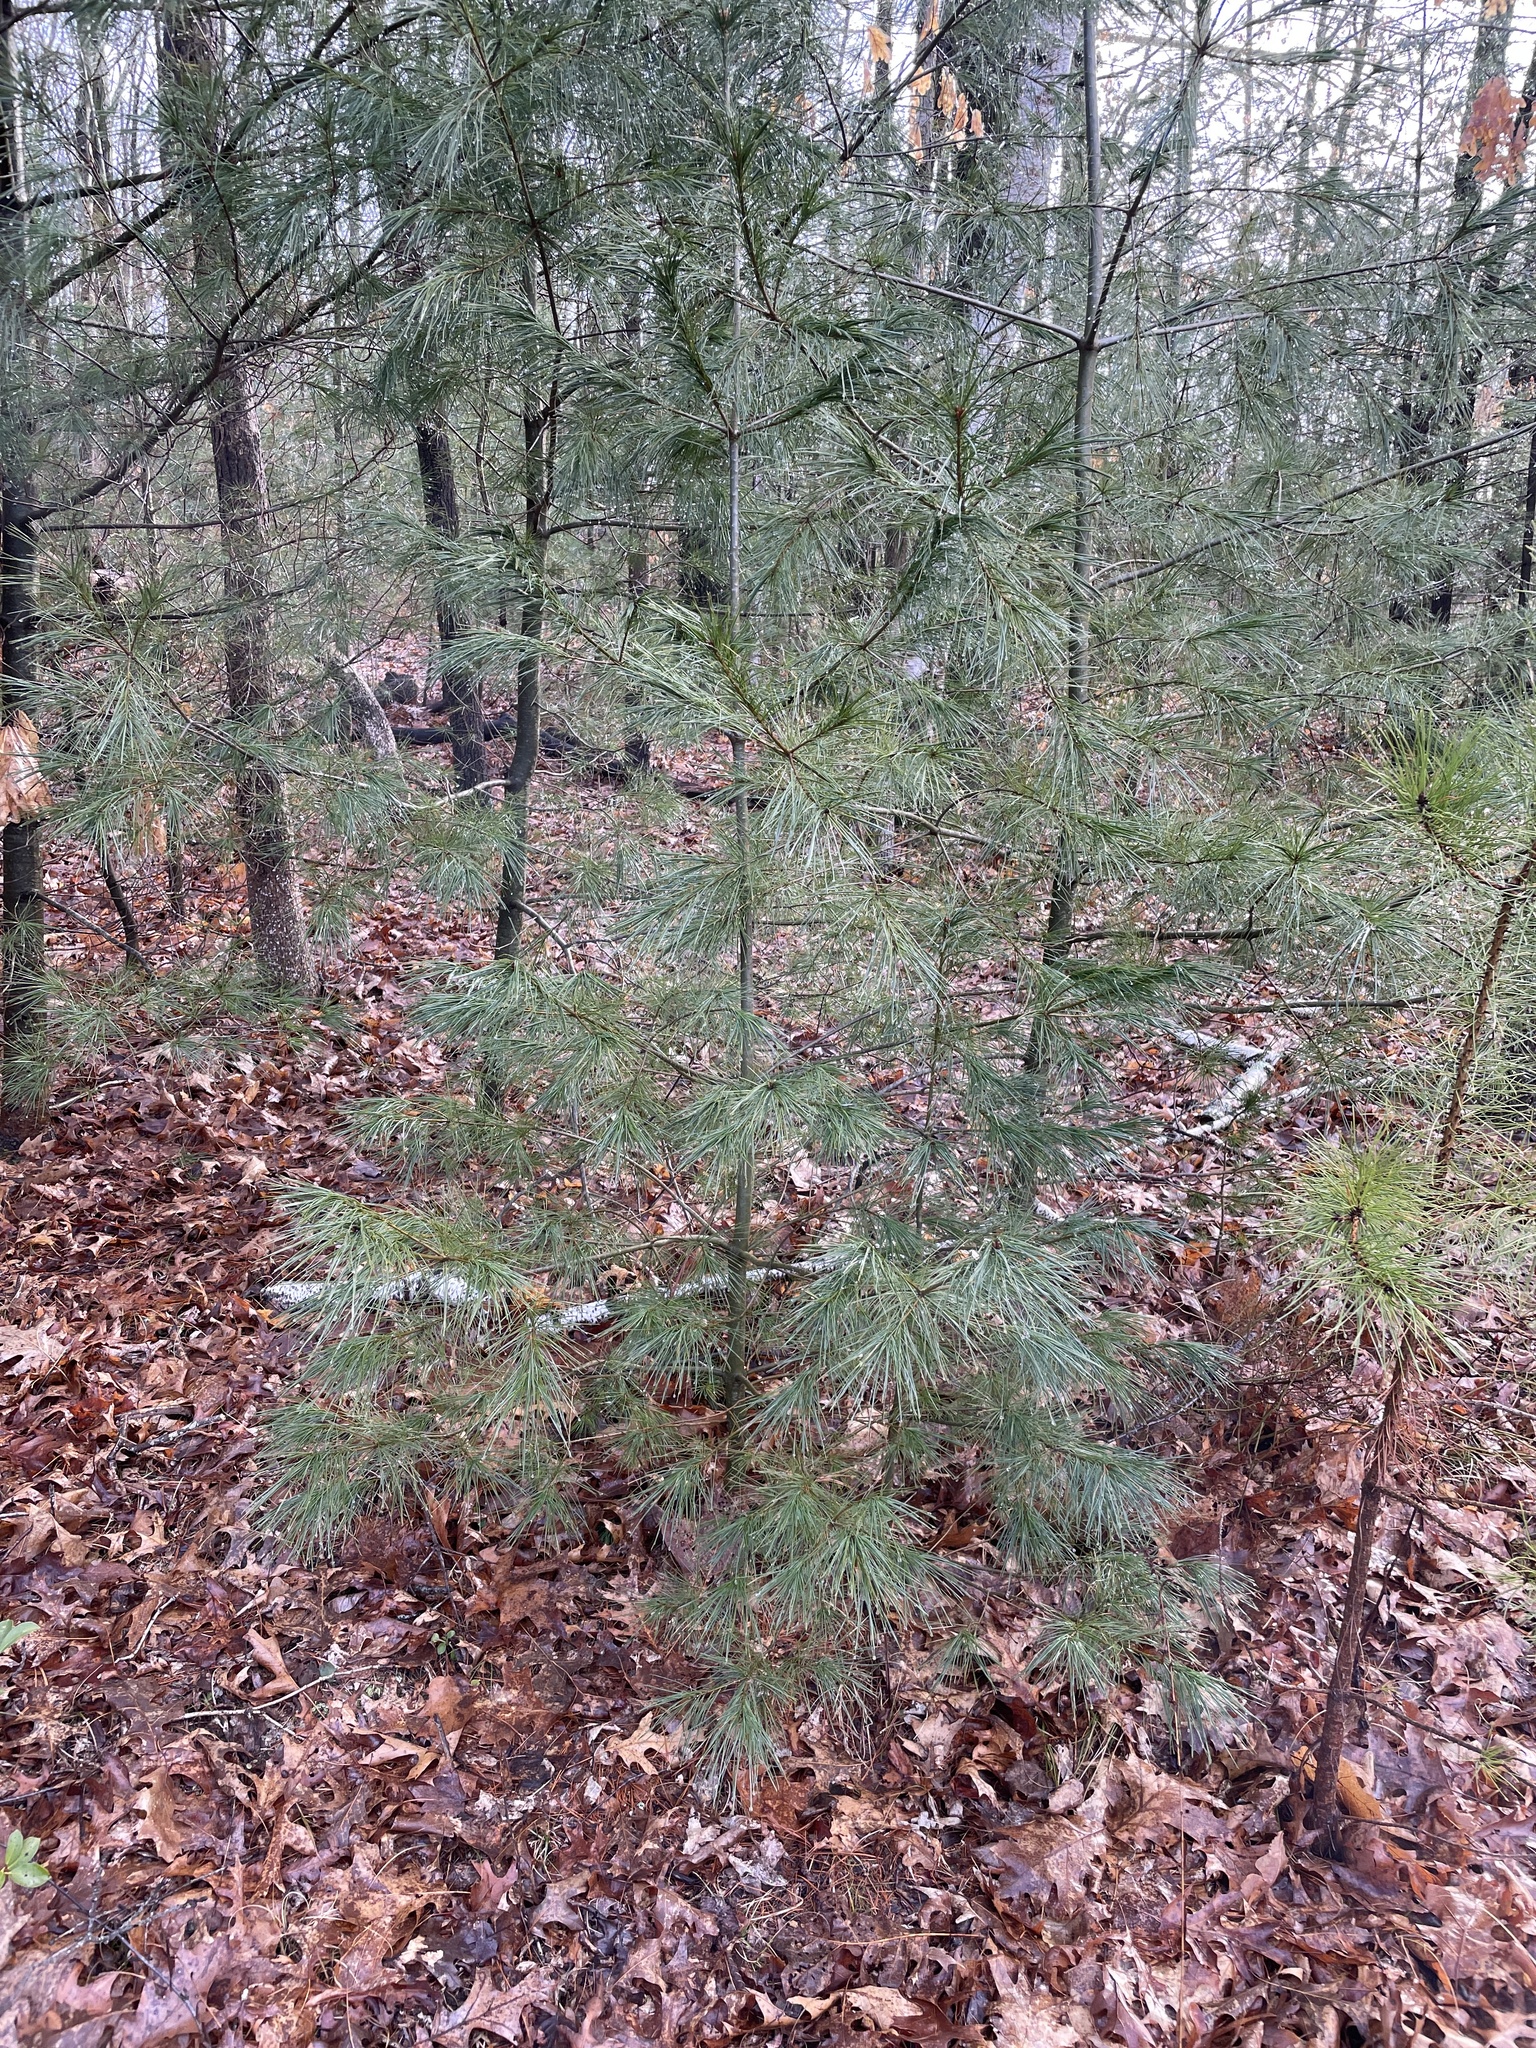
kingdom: Plantae
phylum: Tracheophyta
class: Pinopsida
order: Pinales
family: Pinaceae
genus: Pinus
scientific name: Pinus strobus
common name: Weymouth pine
